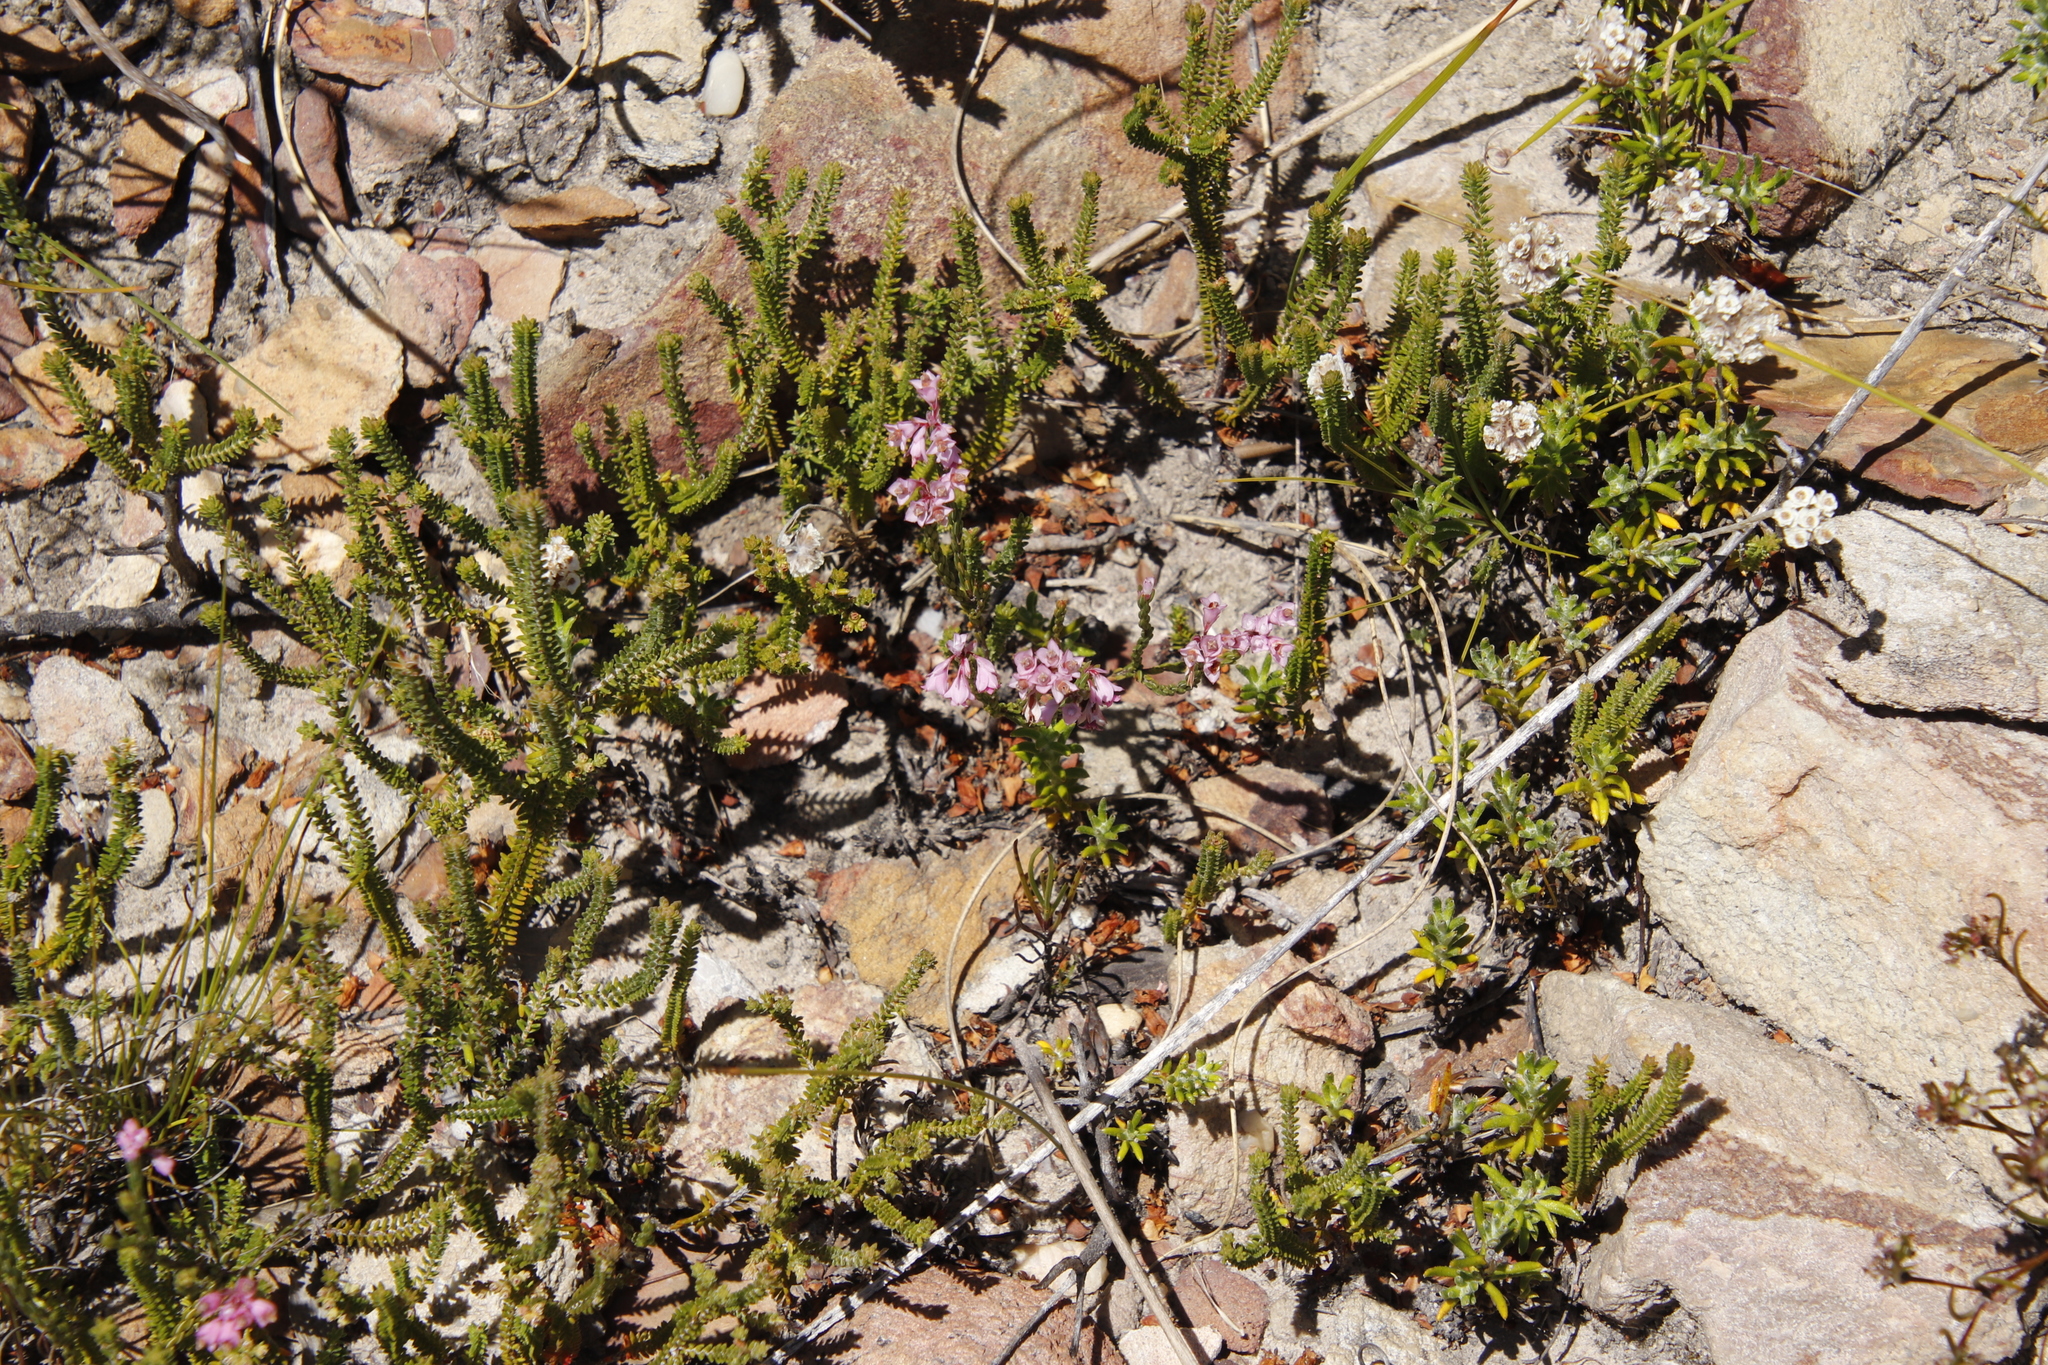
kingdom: Plantae
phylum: Tracheophyta
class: Magnoliopsida
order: Ericales
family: Ericaceae
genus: Erica
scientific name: Erica corifolia
